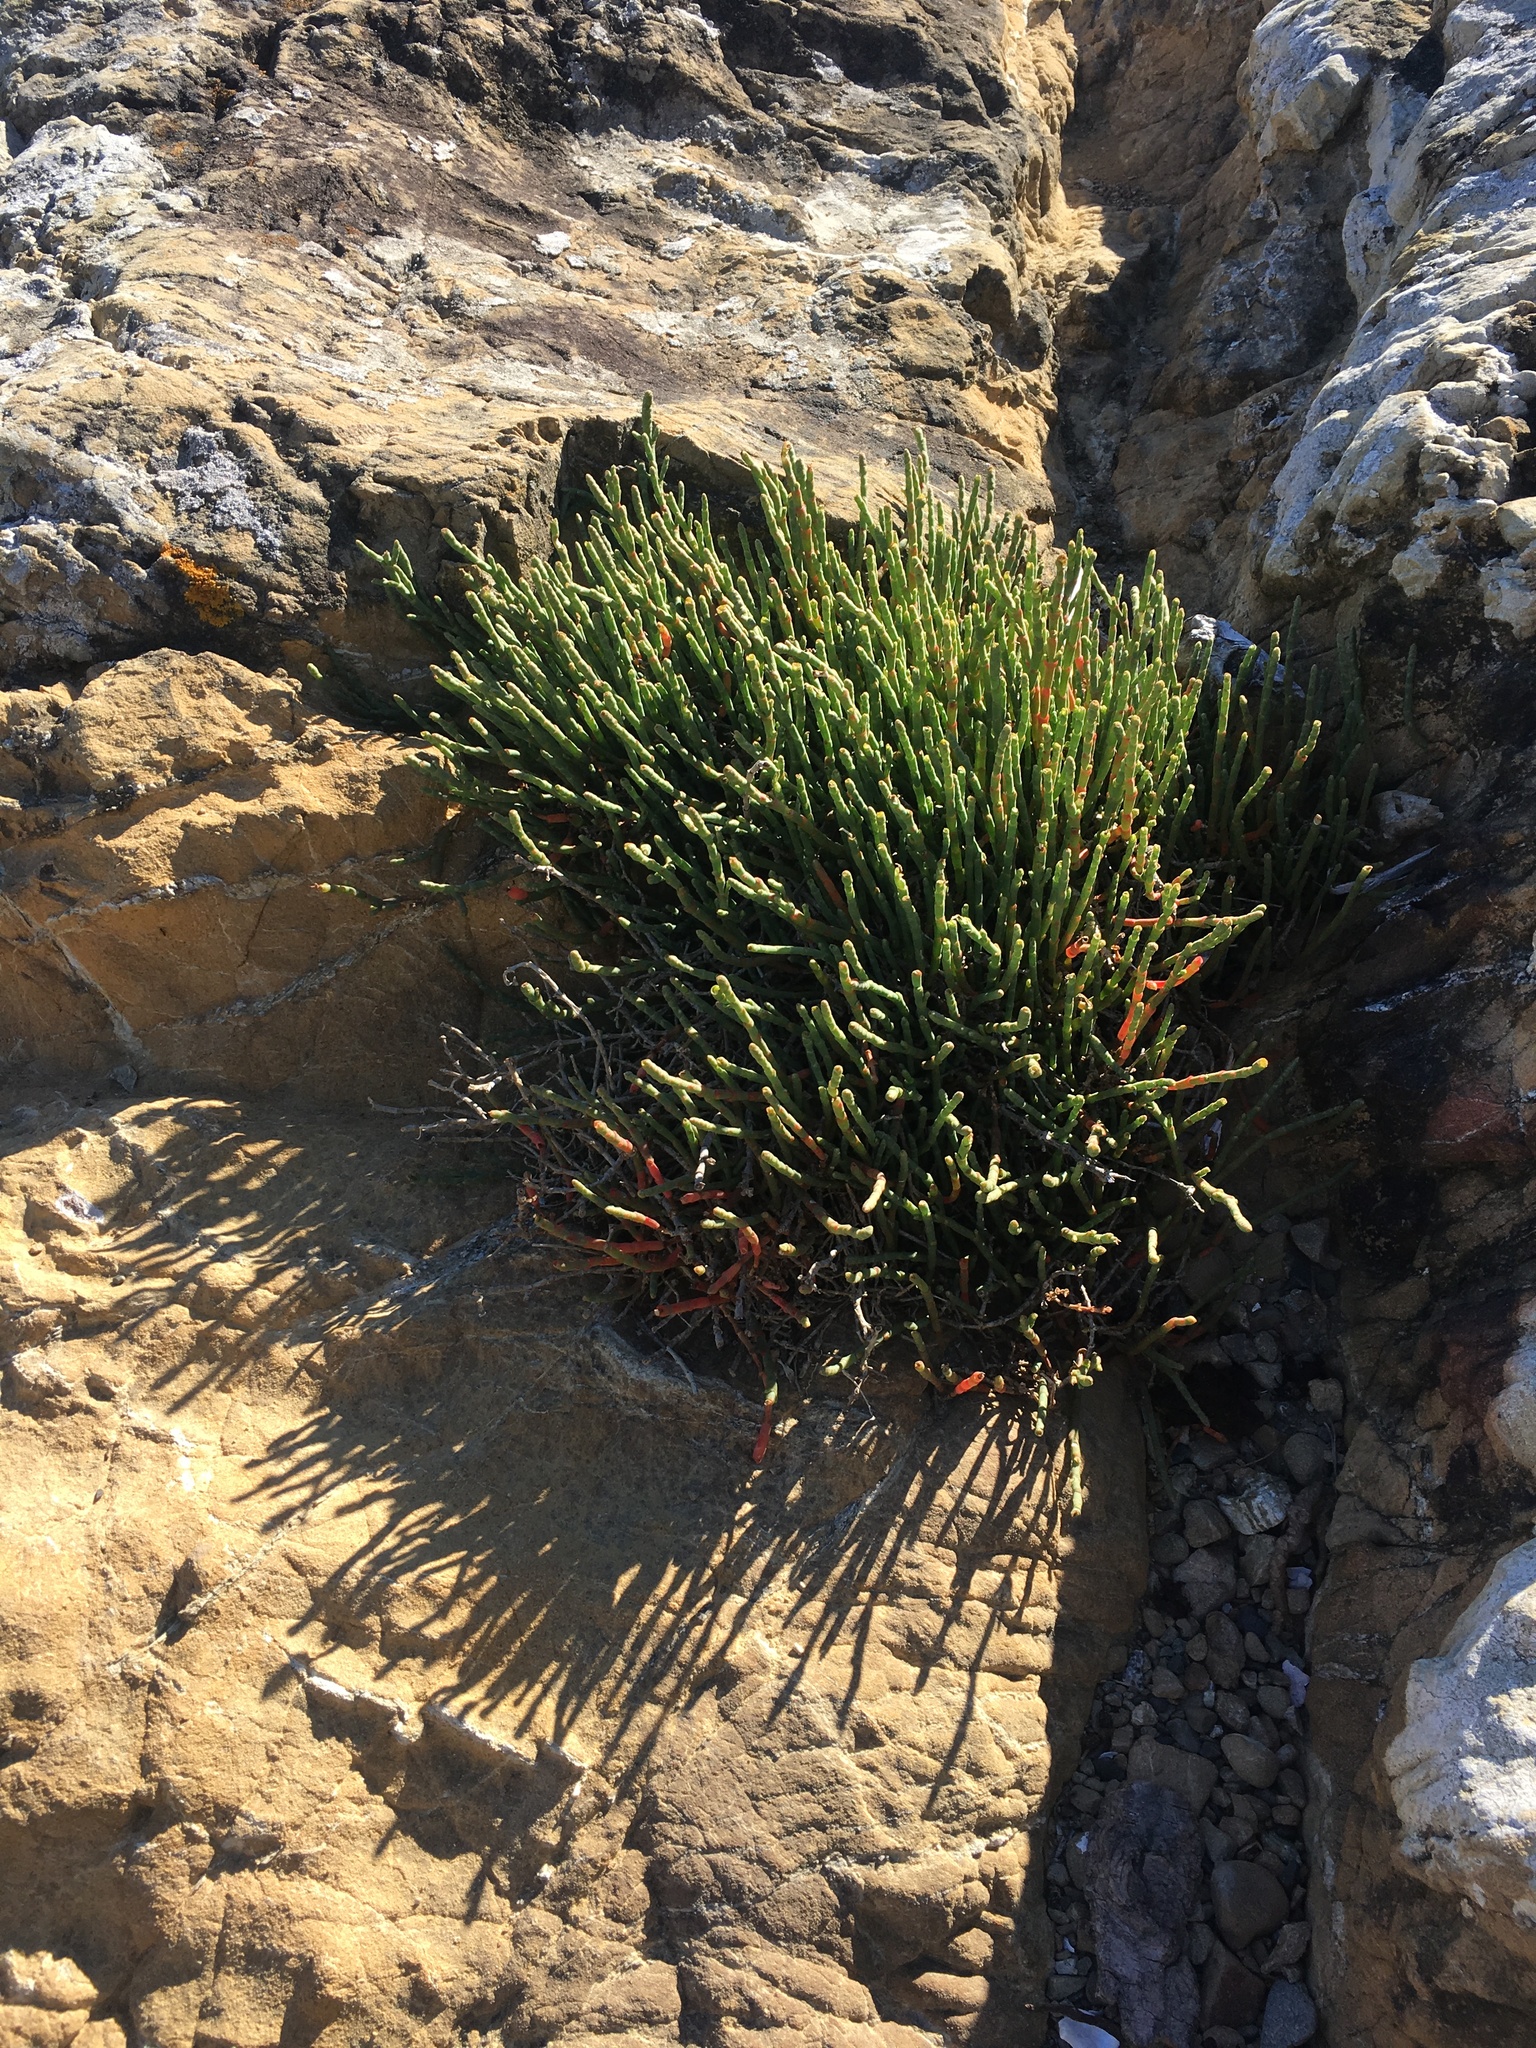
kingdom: Plantae
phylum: Tracheophyta
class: Magnoliopsida
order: Caryophyllales
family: Amaranthaceae
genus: Salicornia
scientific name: Salicornia quinqueflora
